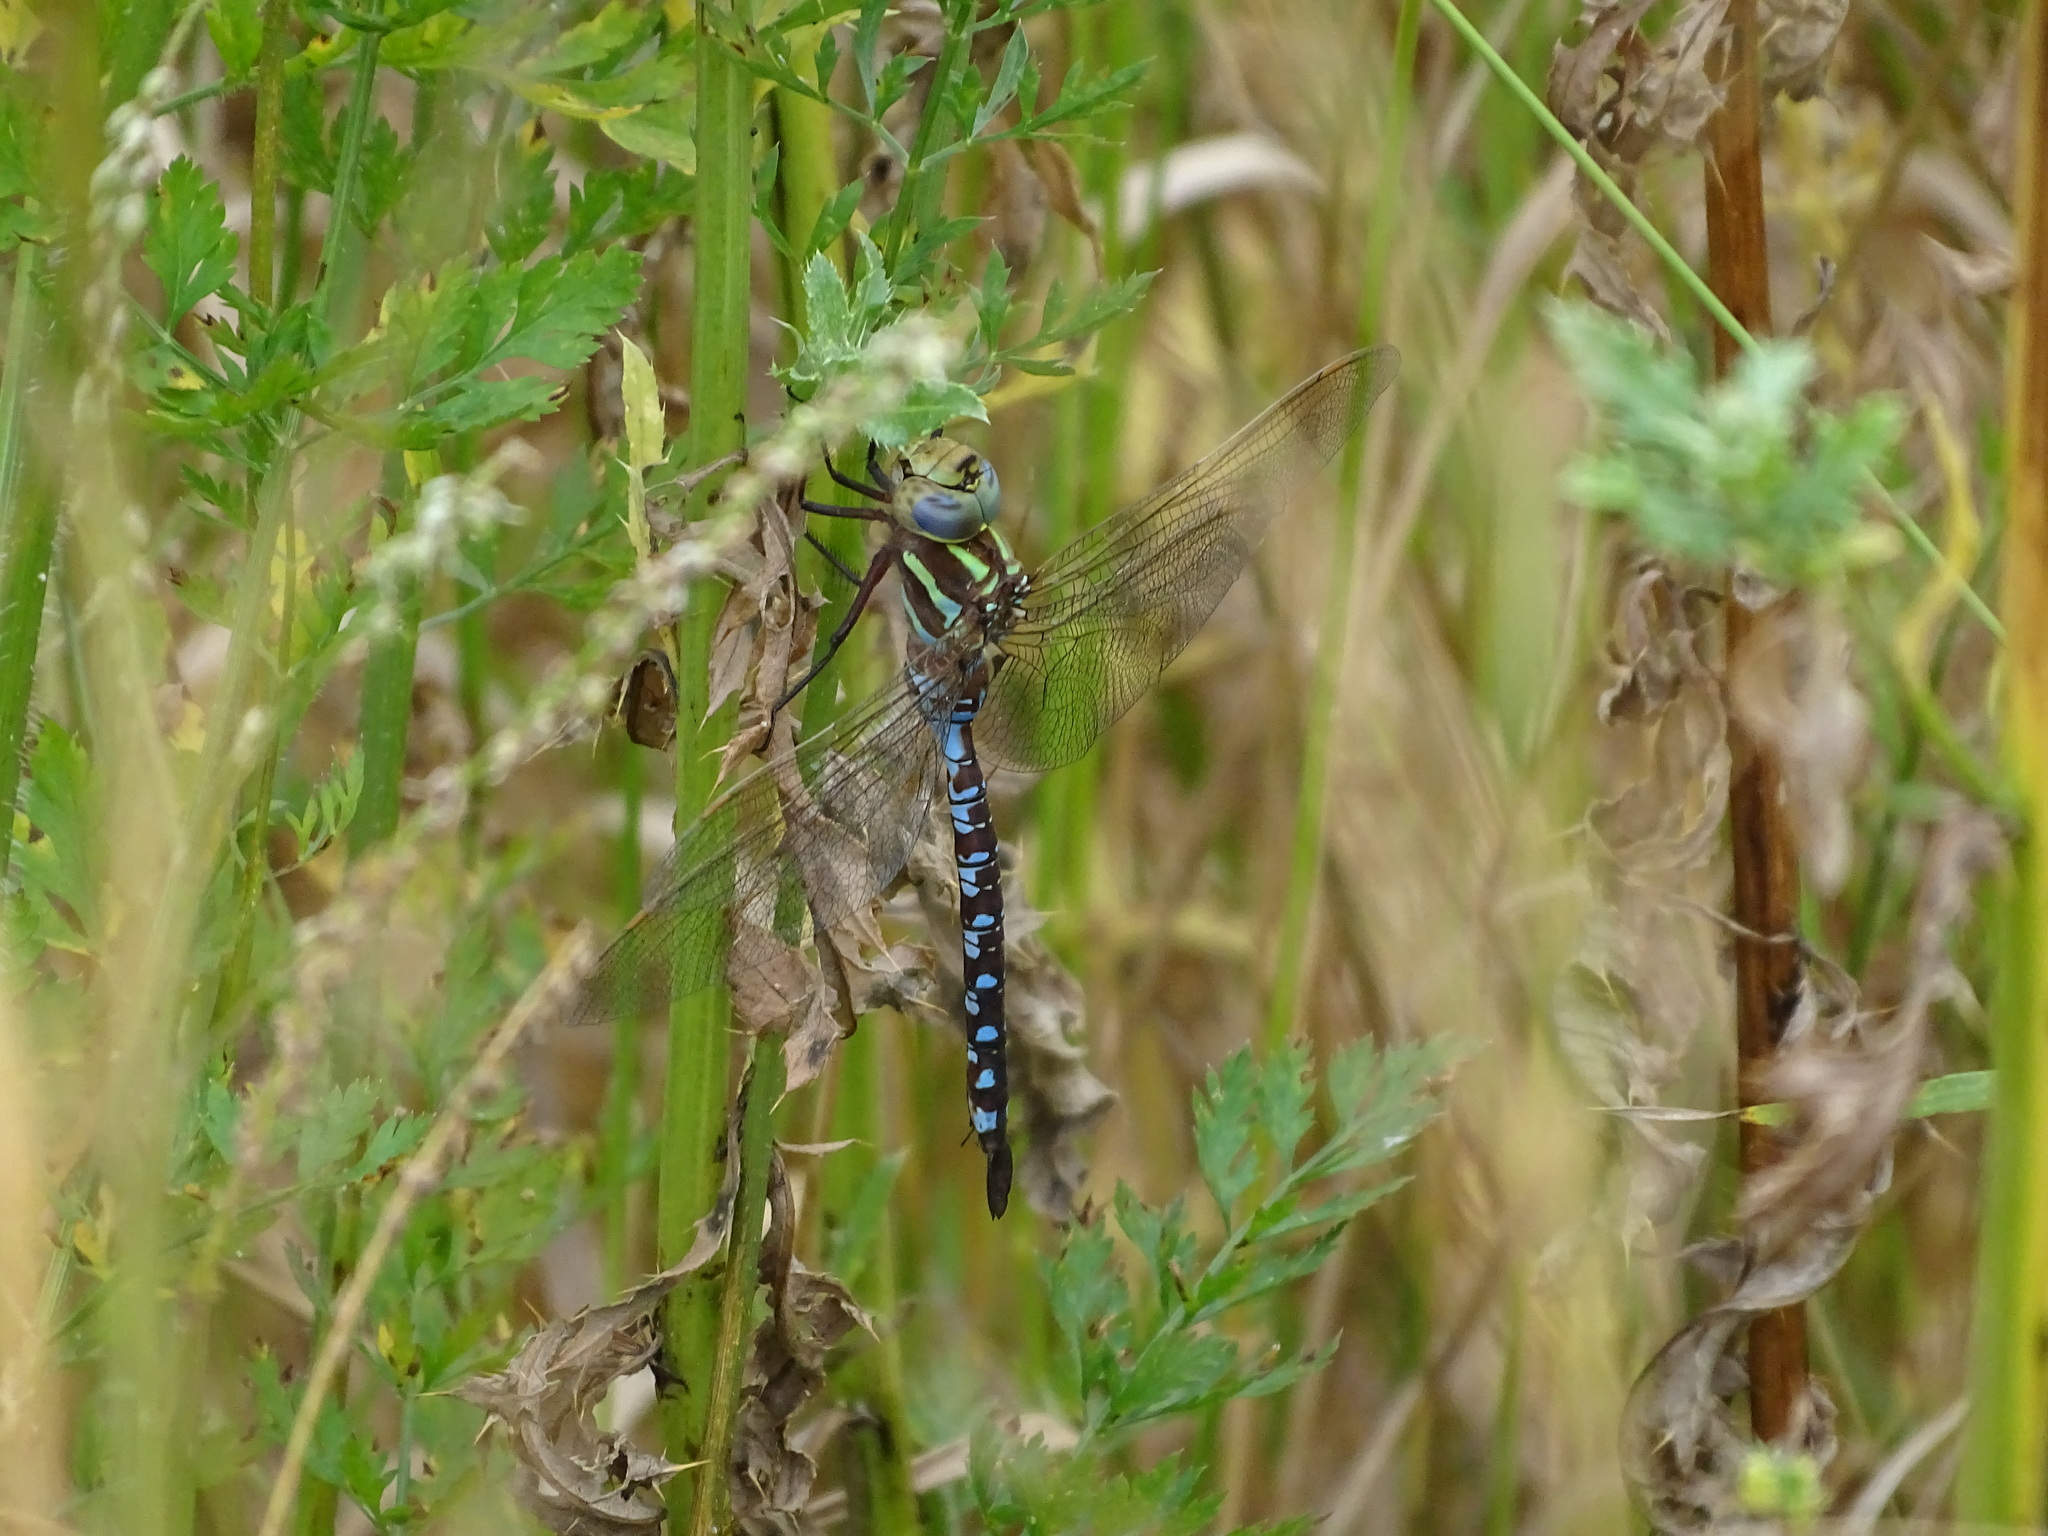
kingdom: Animalia
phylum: Arthropoda
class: Insecta
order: Odonata
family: Aeshnidae
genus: Aeshna
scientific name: Aeshna constricta
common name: Lance-tipped darner
